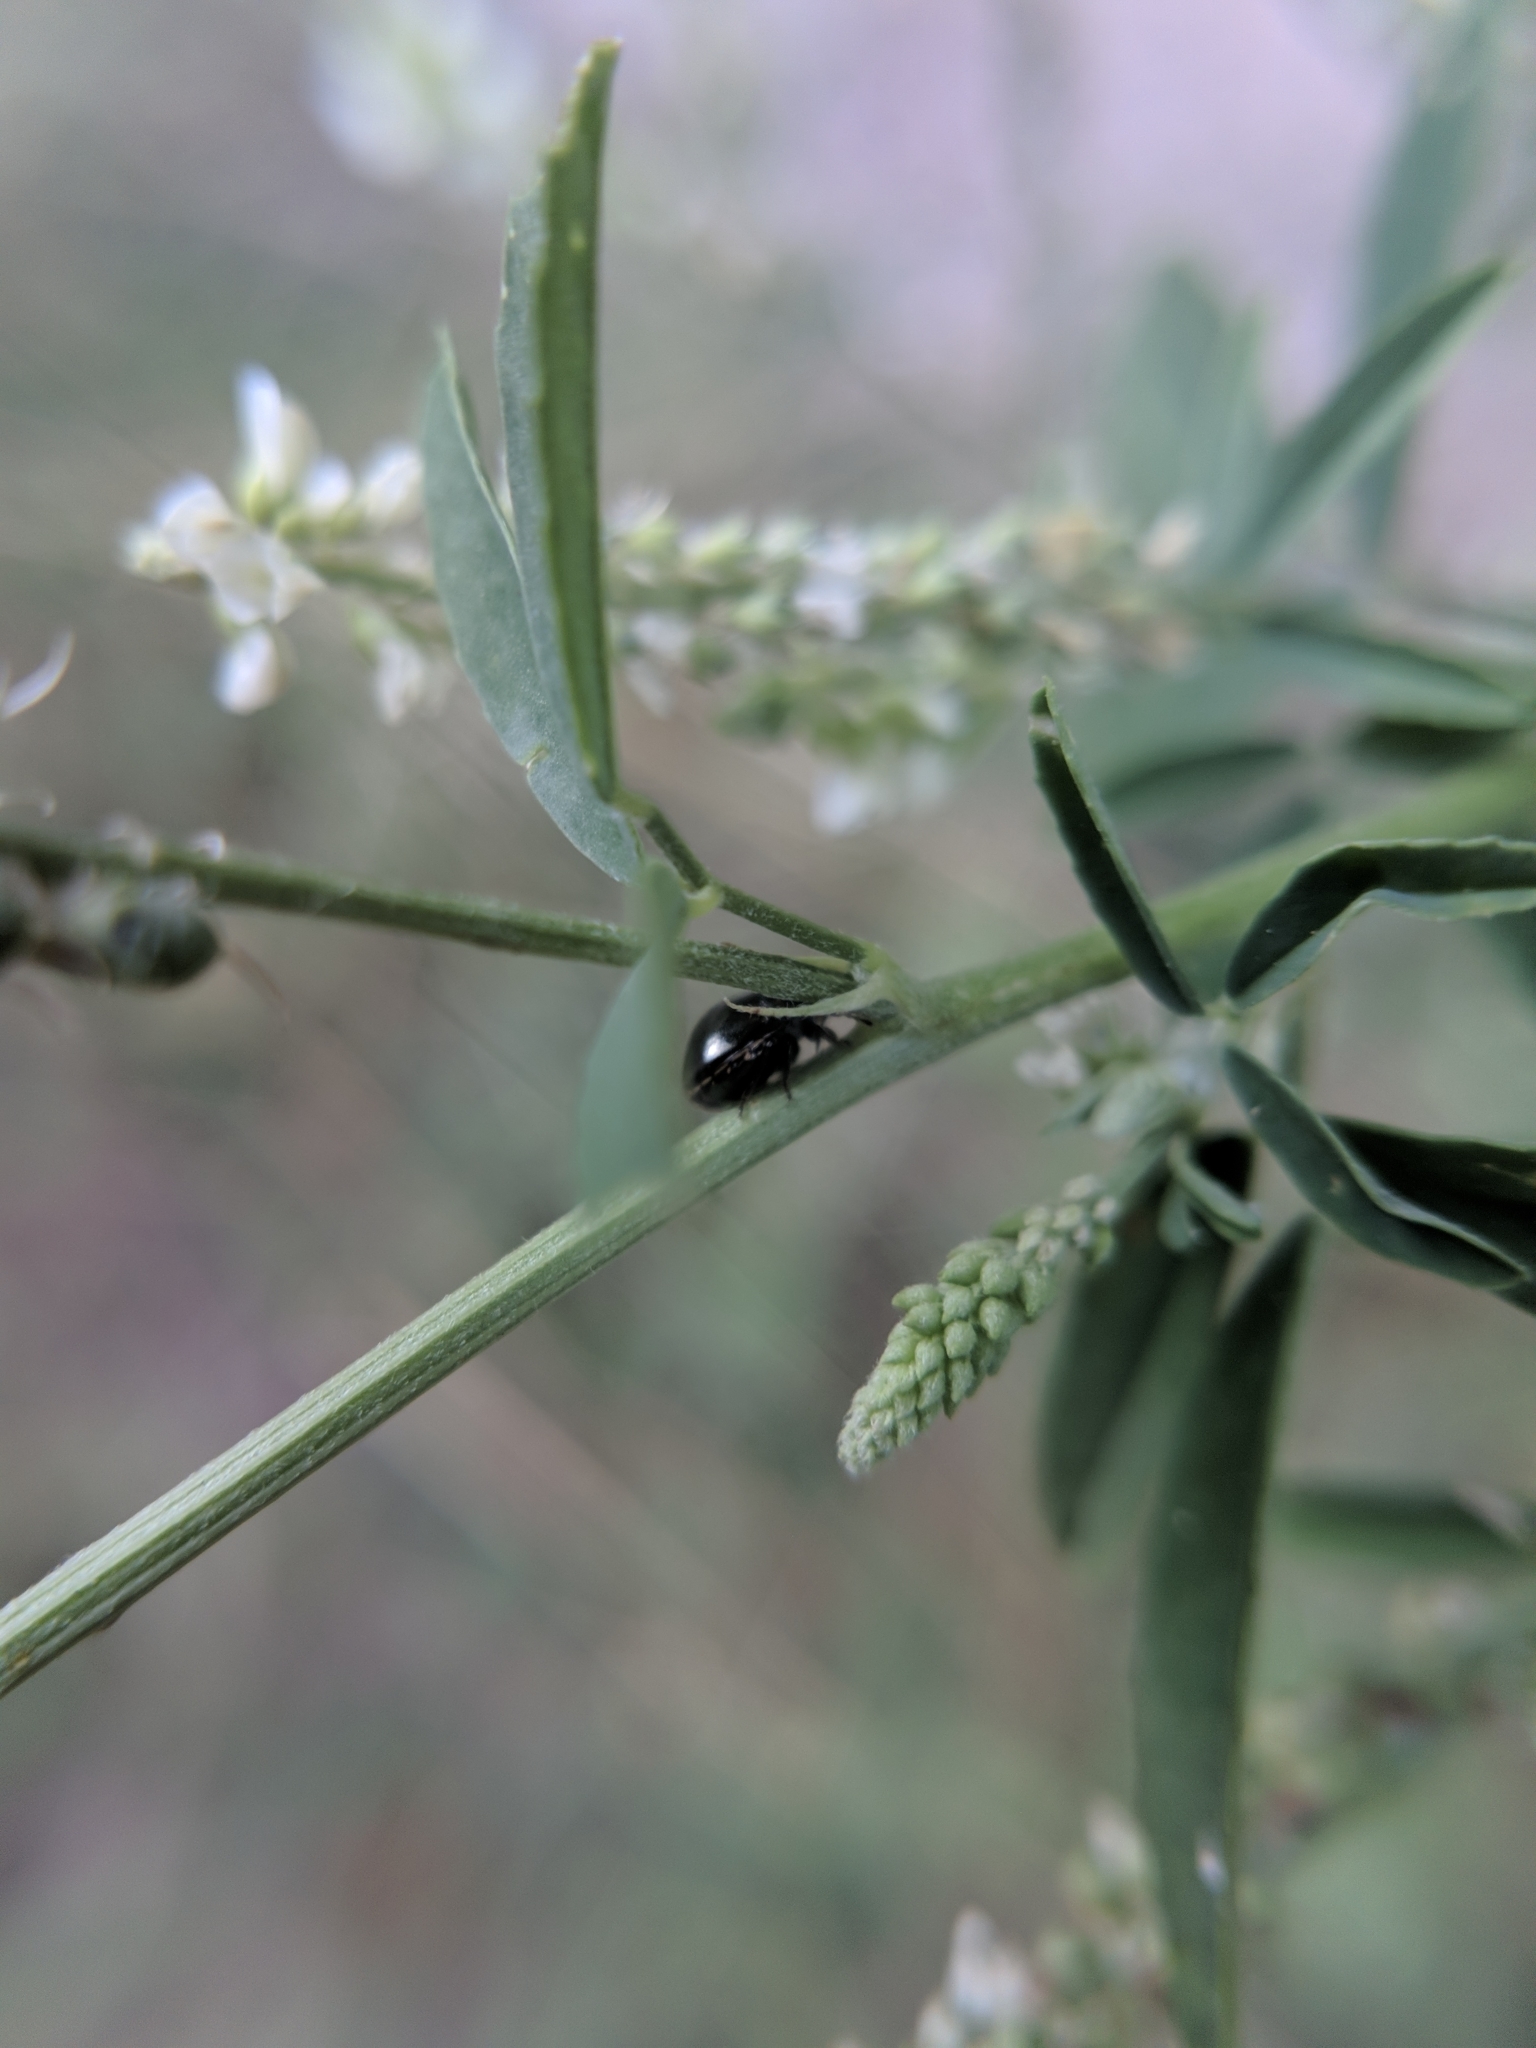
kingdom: Animalia
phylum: Arthropoda
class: Insecta
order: Hemiptera
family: Plataspidae
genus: Coptosoma
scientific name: Coptosoma scutellatum
